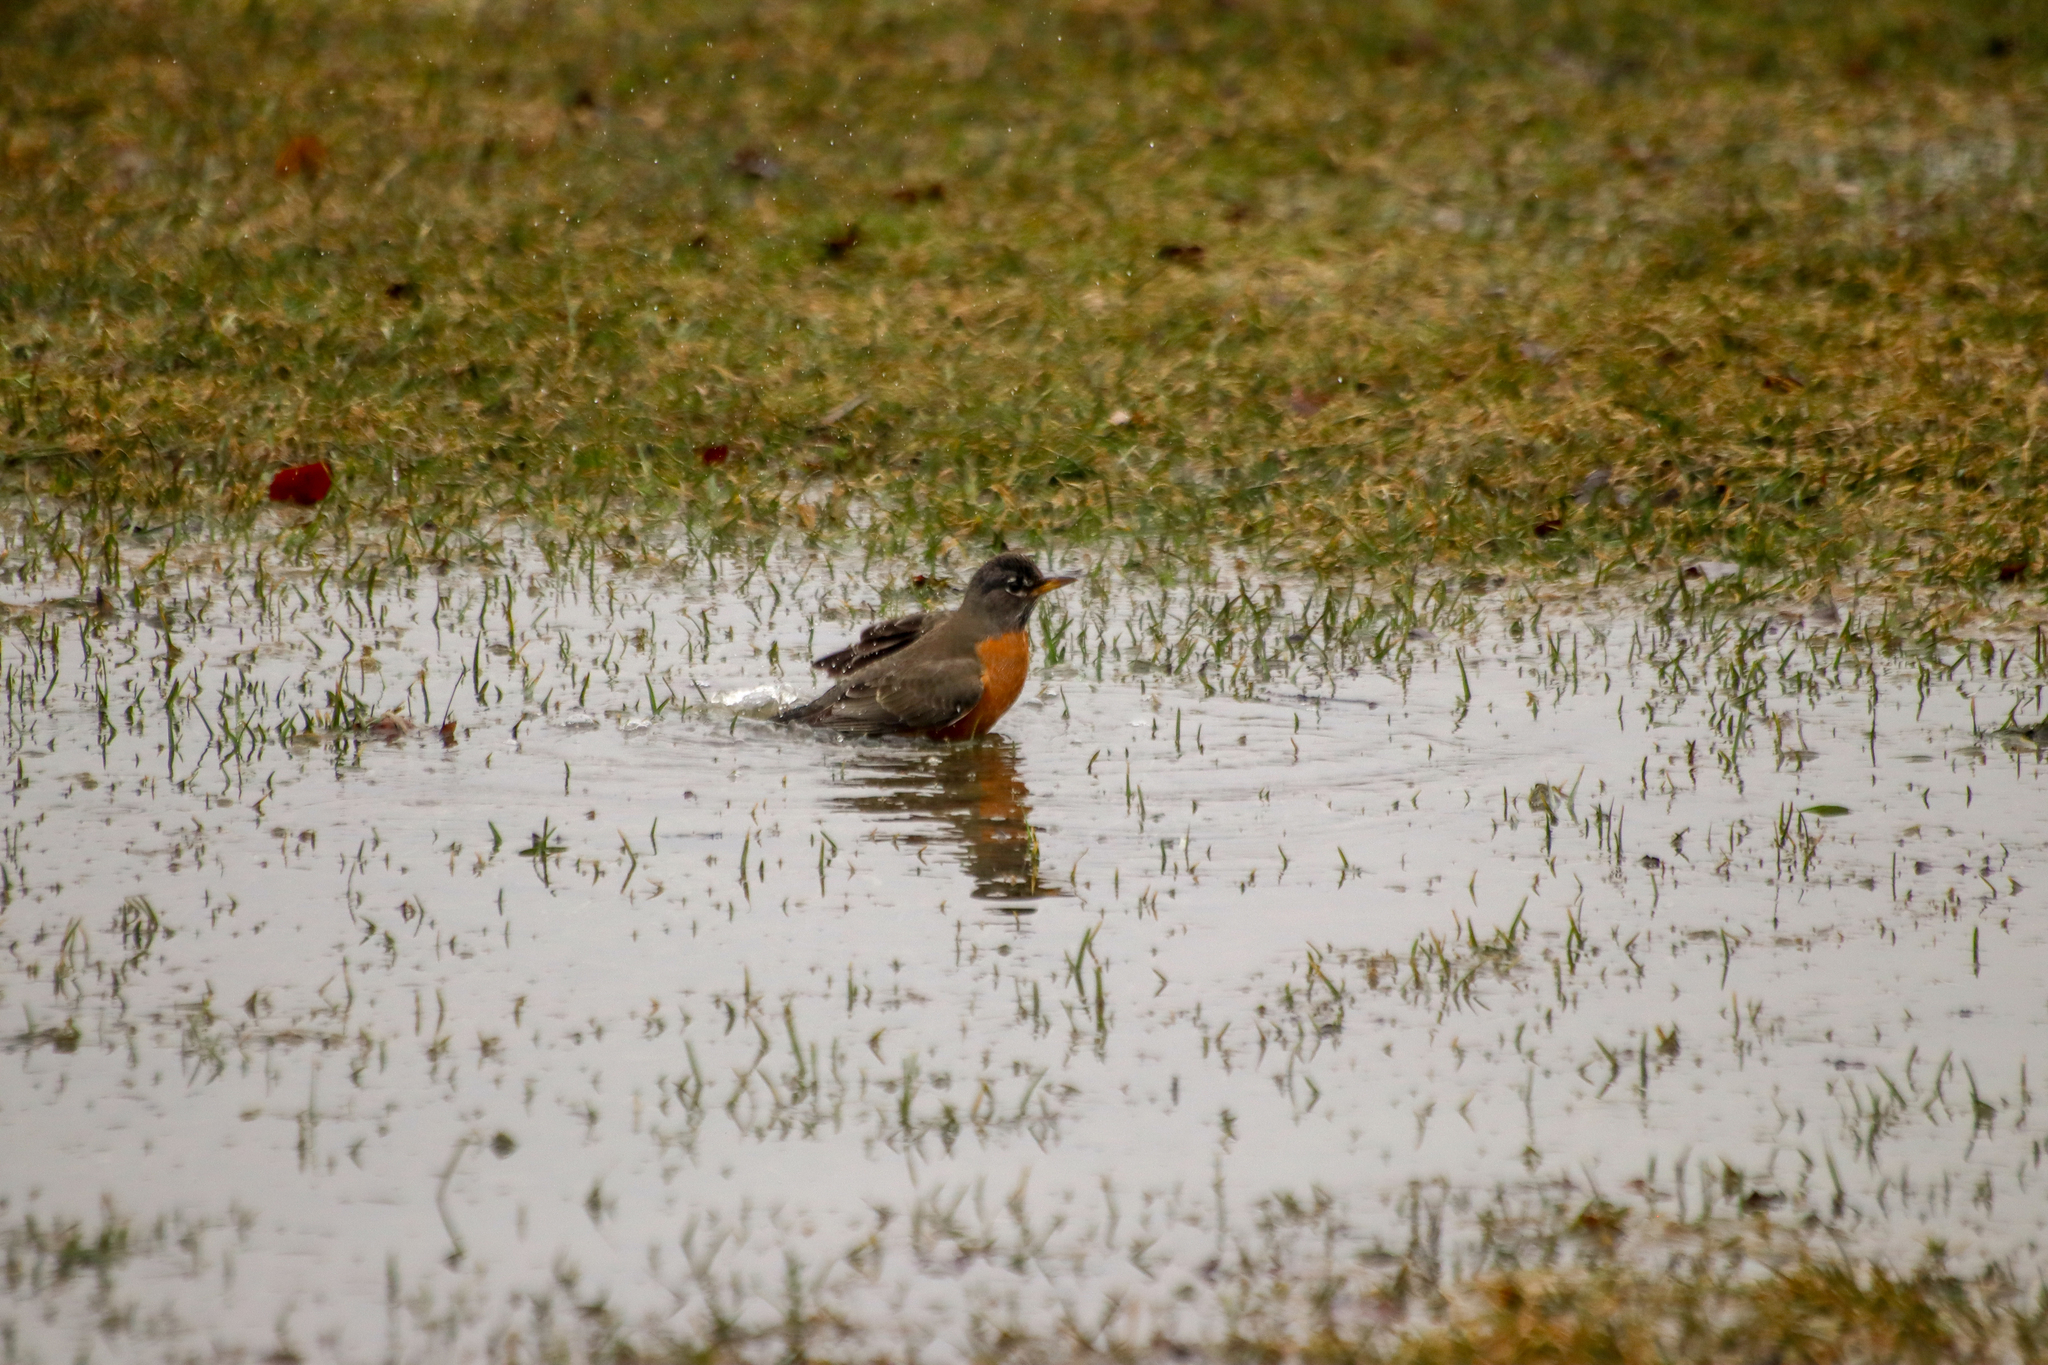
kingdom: Animalia
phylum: Chordata
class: Aves
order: Passeriformes
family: Turdidae
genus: Turdus
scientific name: Turdus migratorius
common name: American robin
